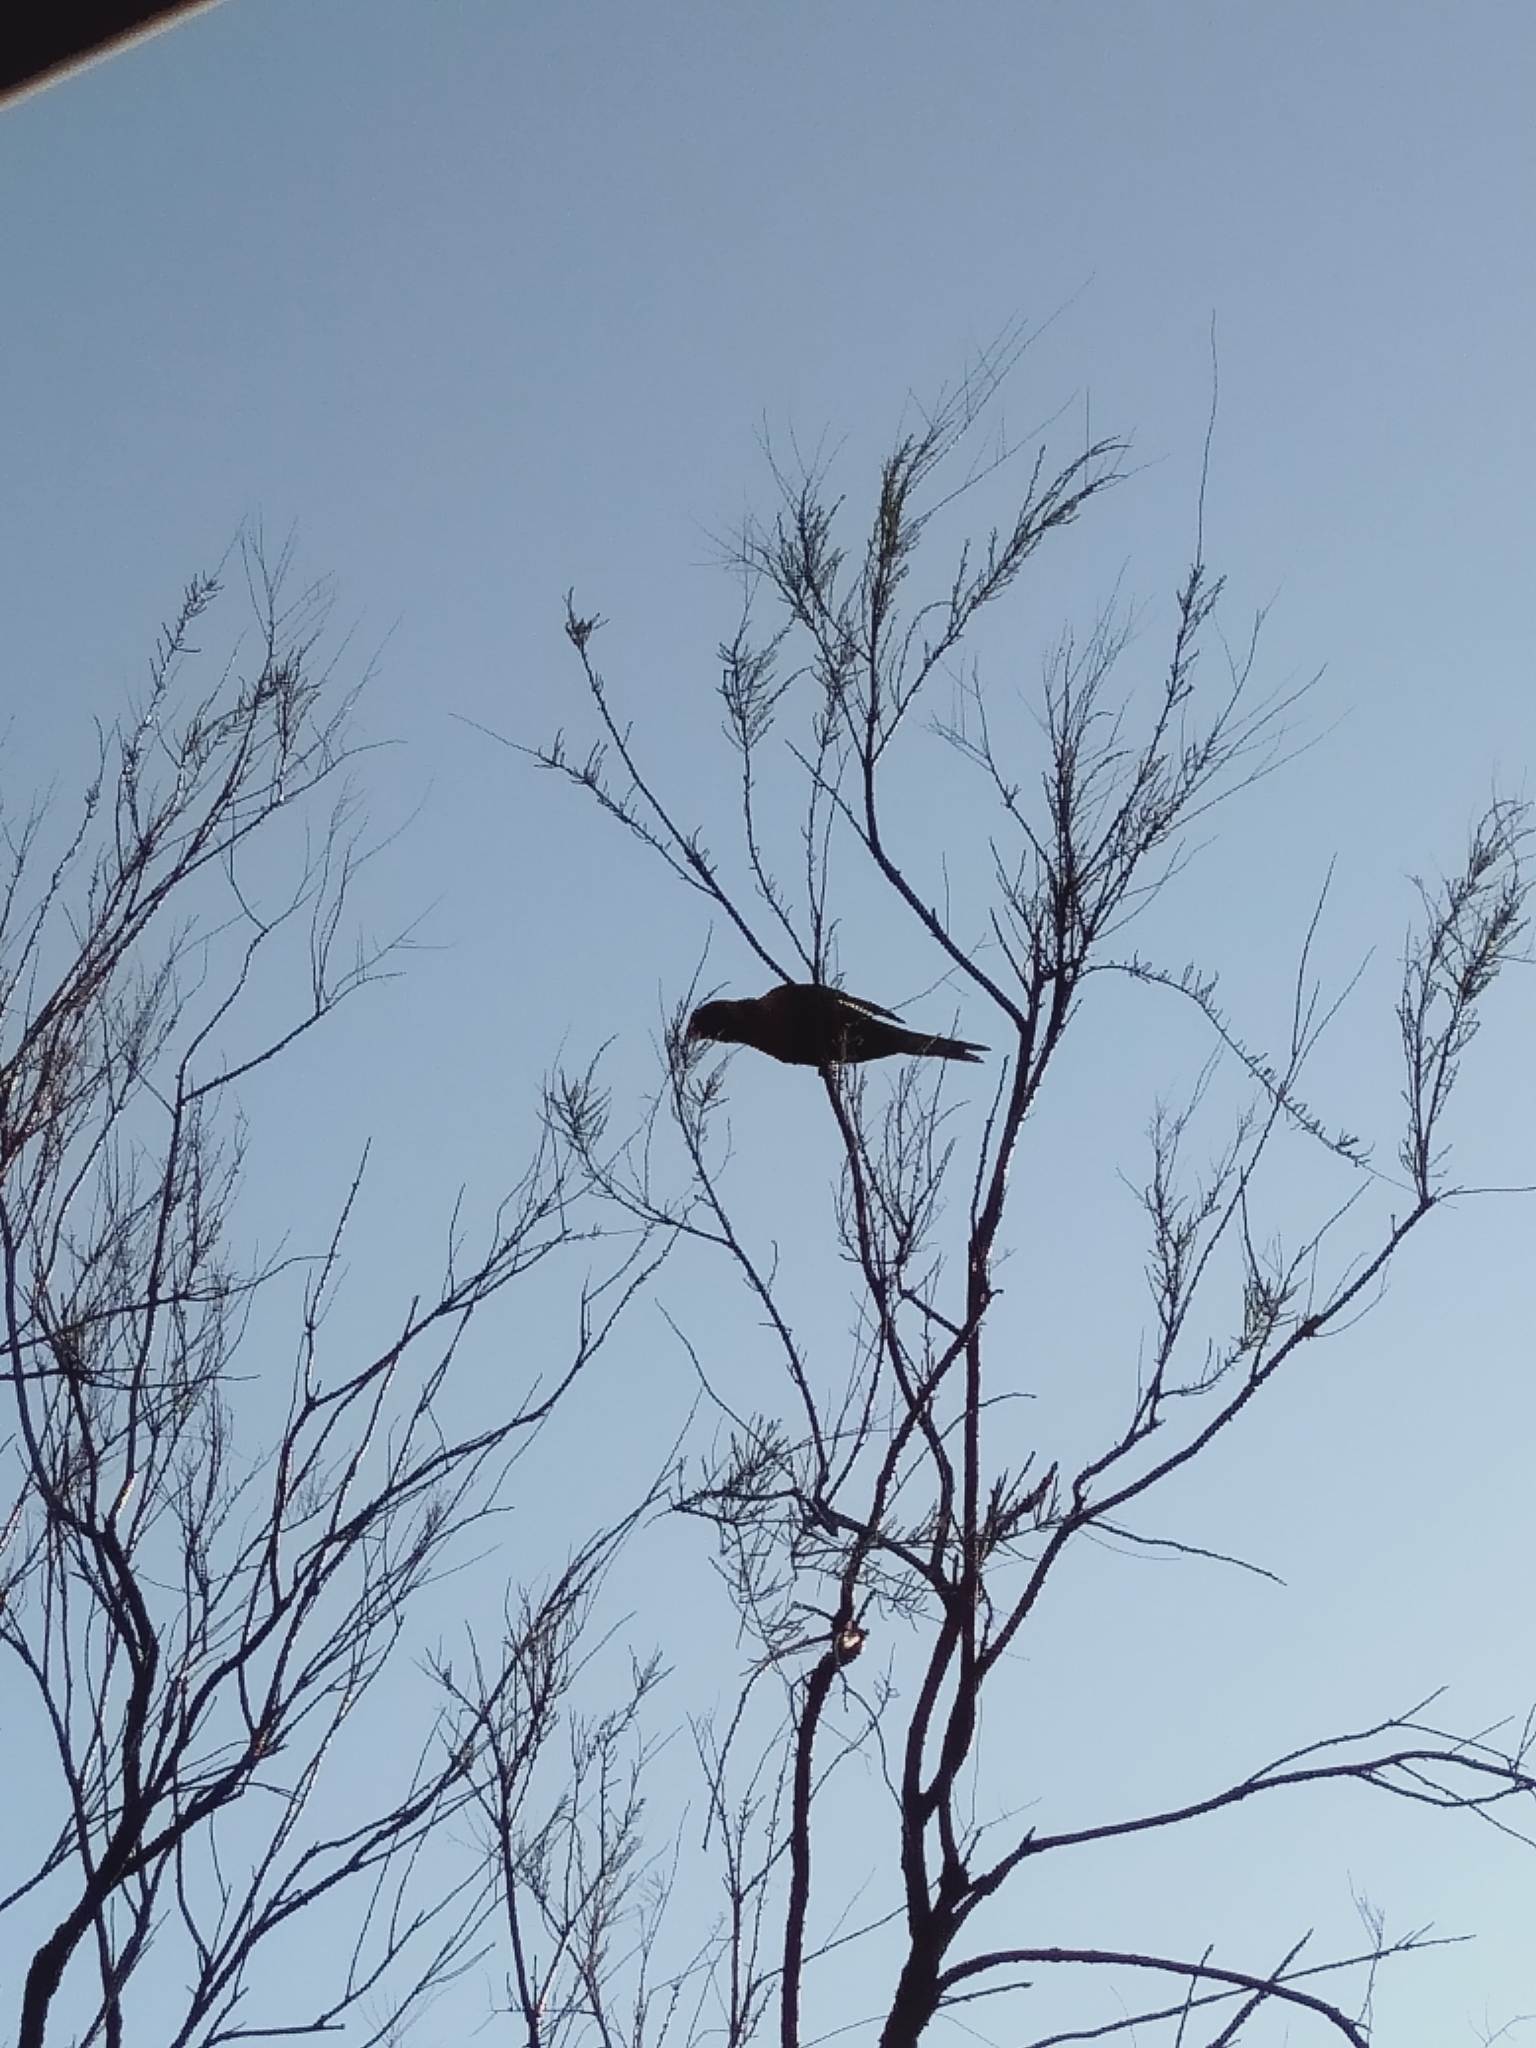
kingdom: Animalia
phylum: Chordata
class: Aves
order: Psittaciformes
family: Psittacidae
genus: Trichoglossus
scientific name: Trichoglossus haematodus
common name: Coconut lorikeet
